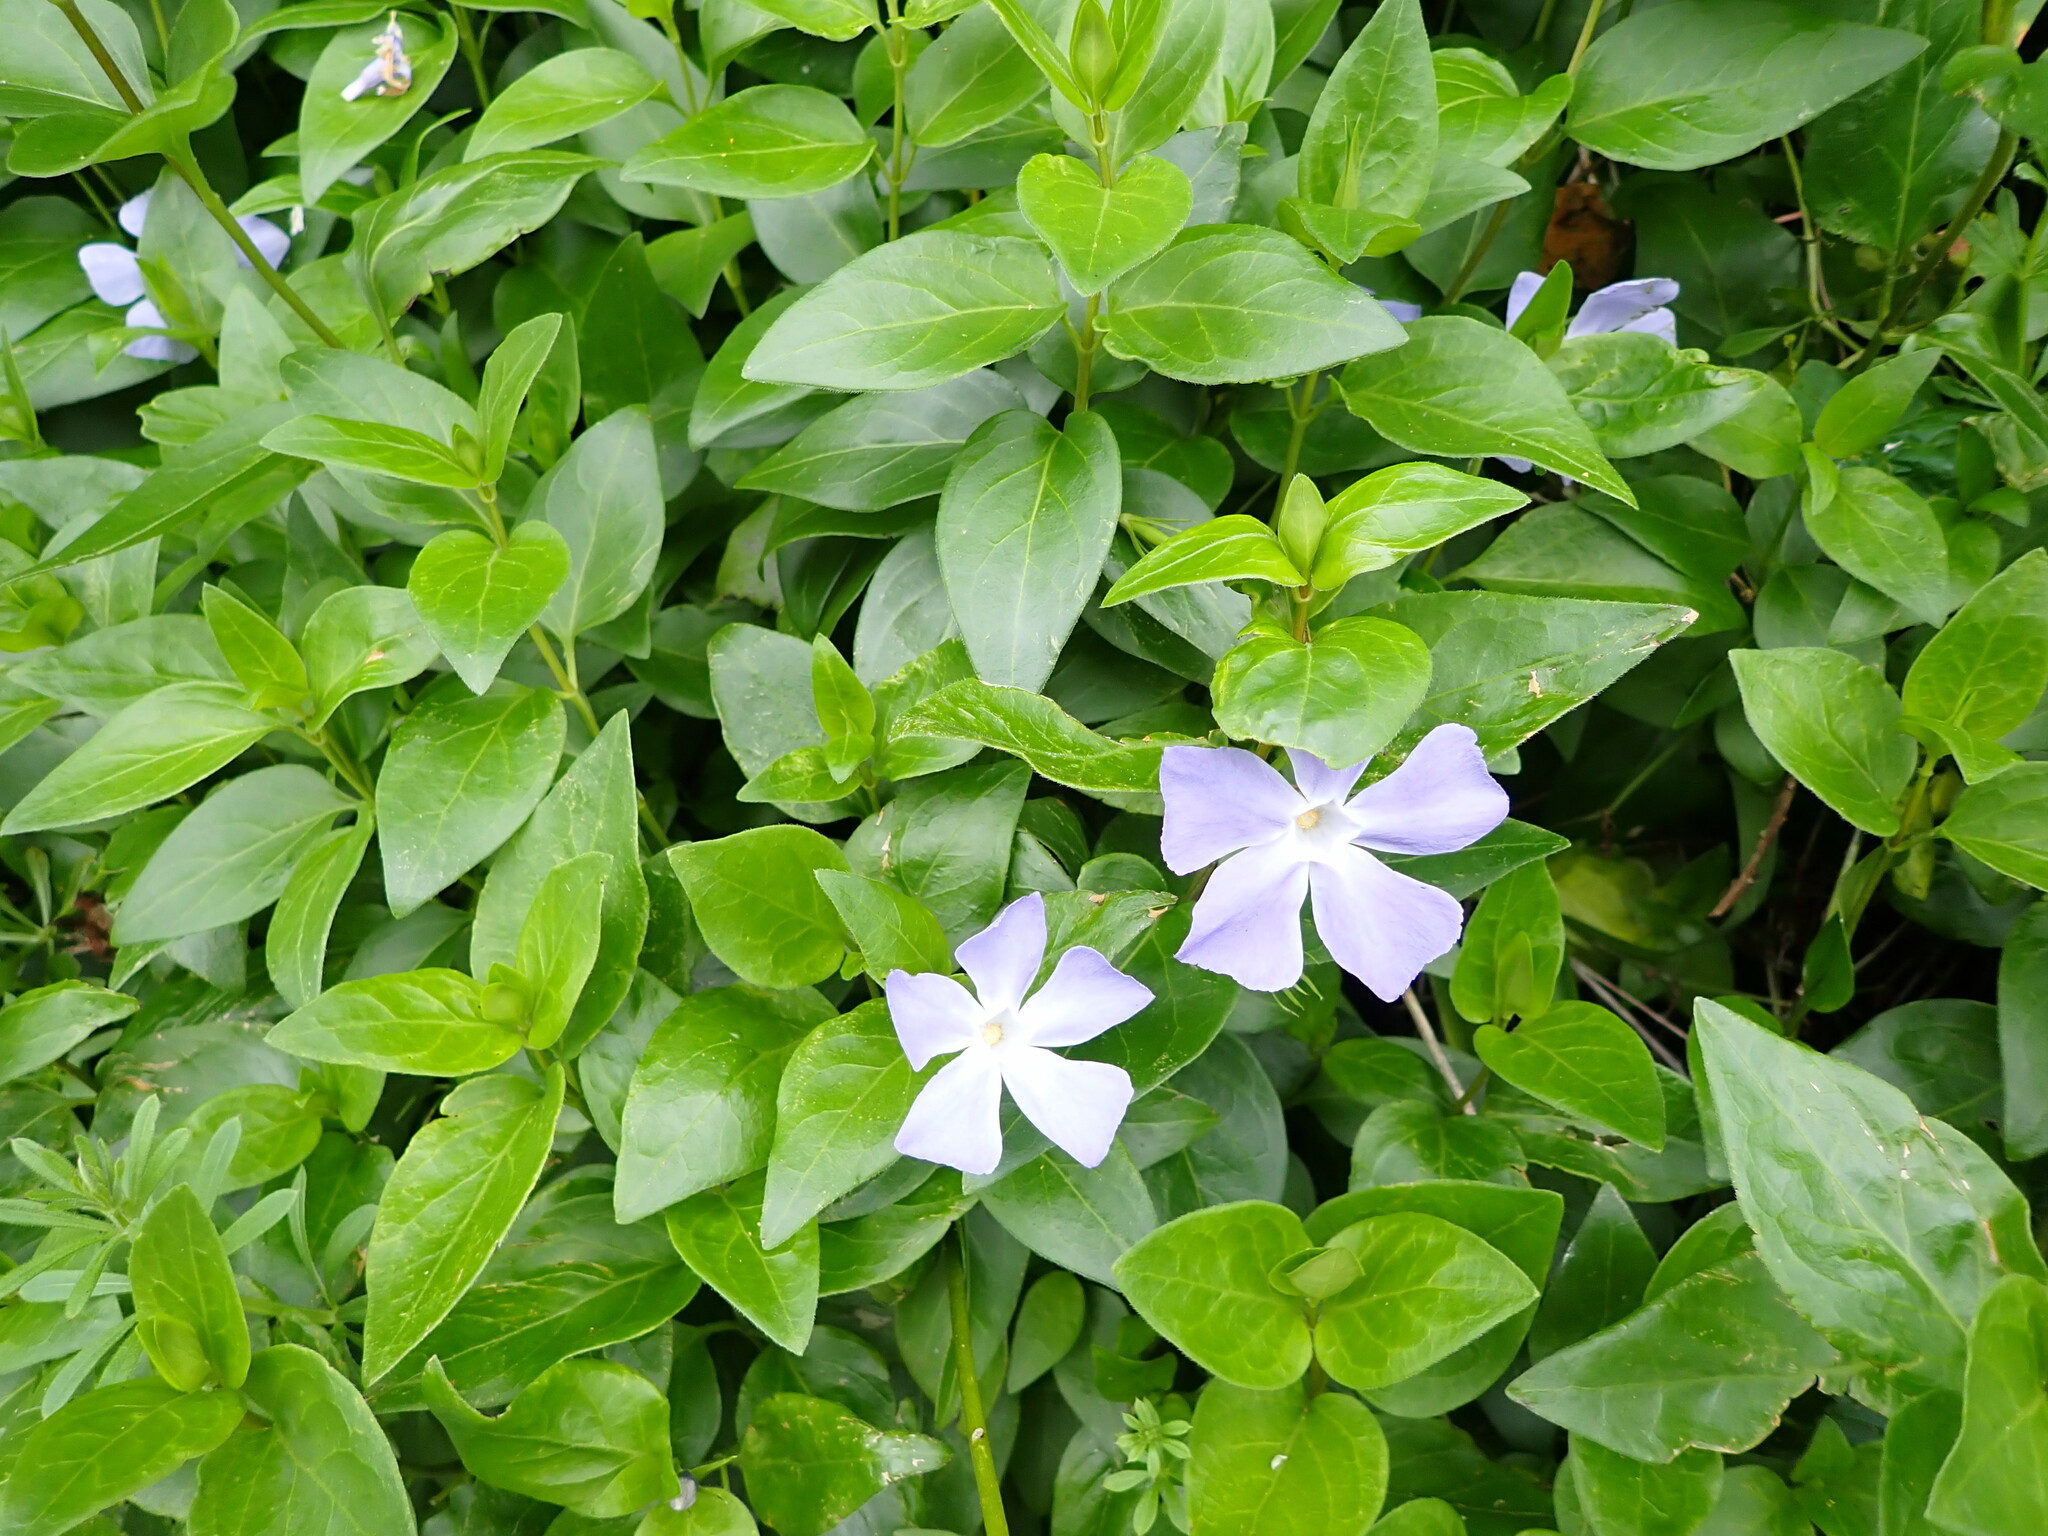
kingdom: Plantae
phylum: Tracheophyta
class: Magnoliopsida
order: Gentianales
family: Apocynaceae
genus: Vinca
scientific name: Vinca major
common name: Greater periwinkle
